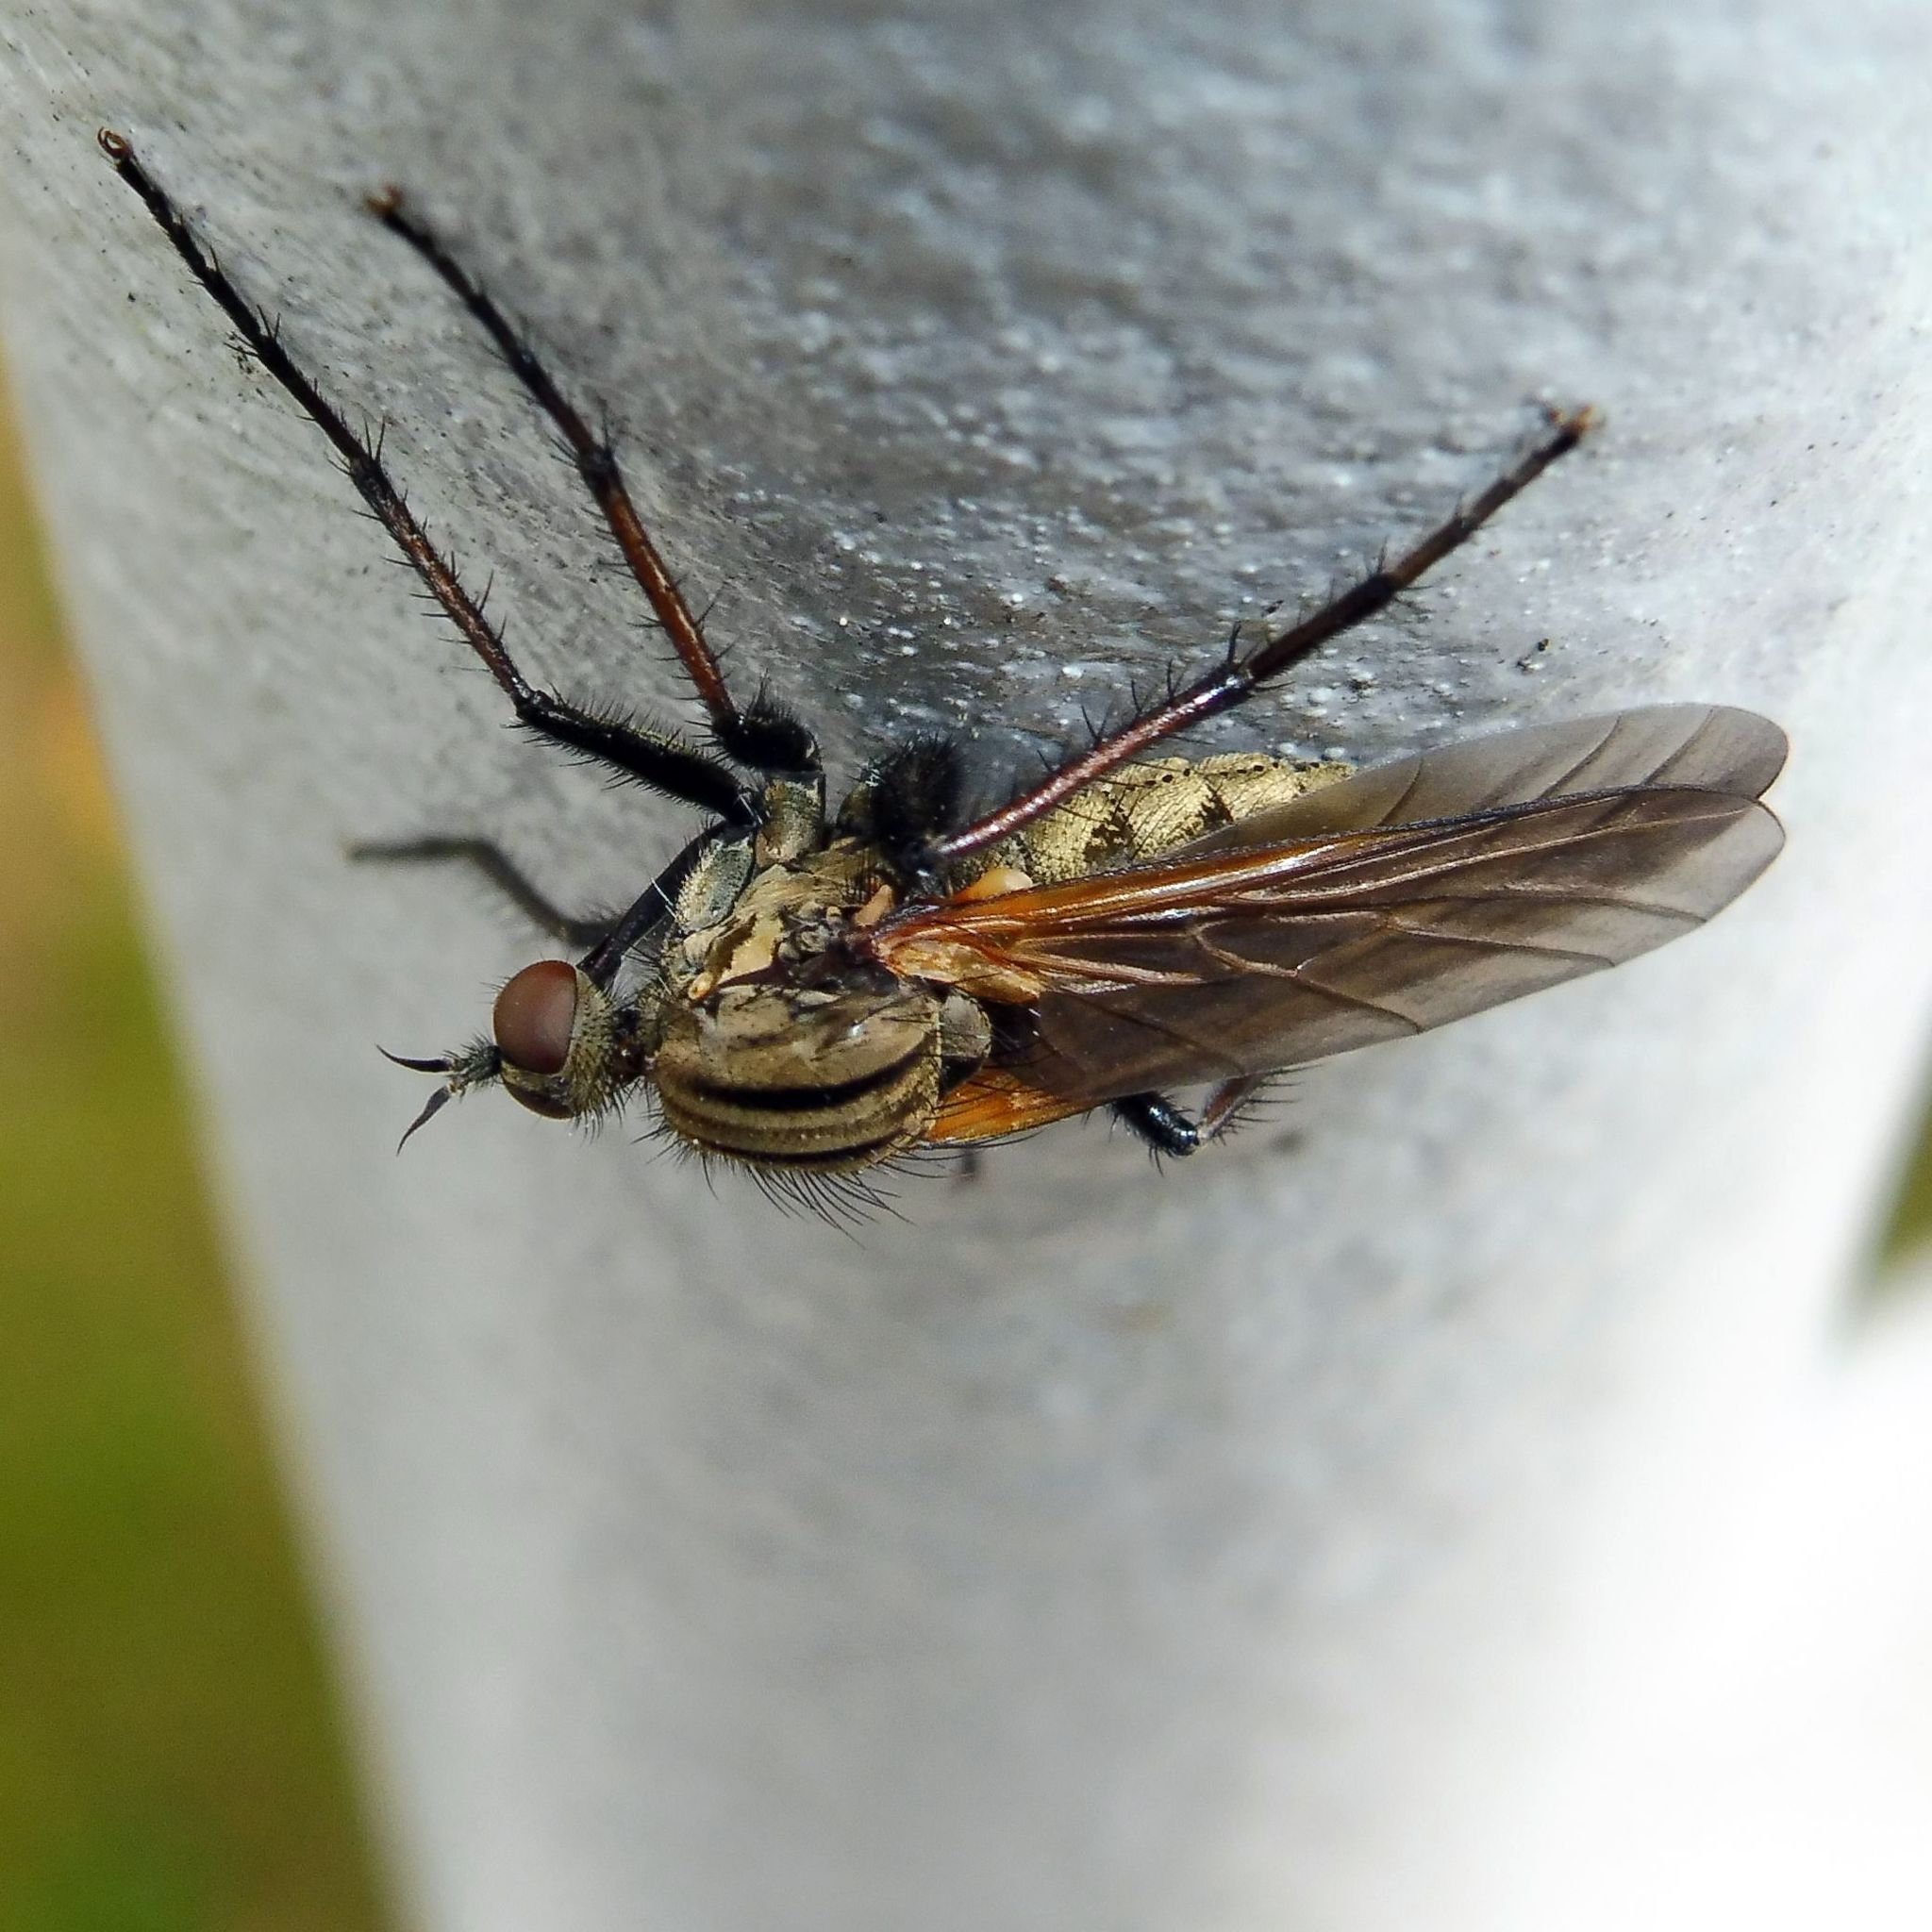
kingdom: Animalia
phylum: Arthropoda
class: Insecta
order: Diptera
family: Empididae
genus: Empis
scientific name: Empis tessellata
